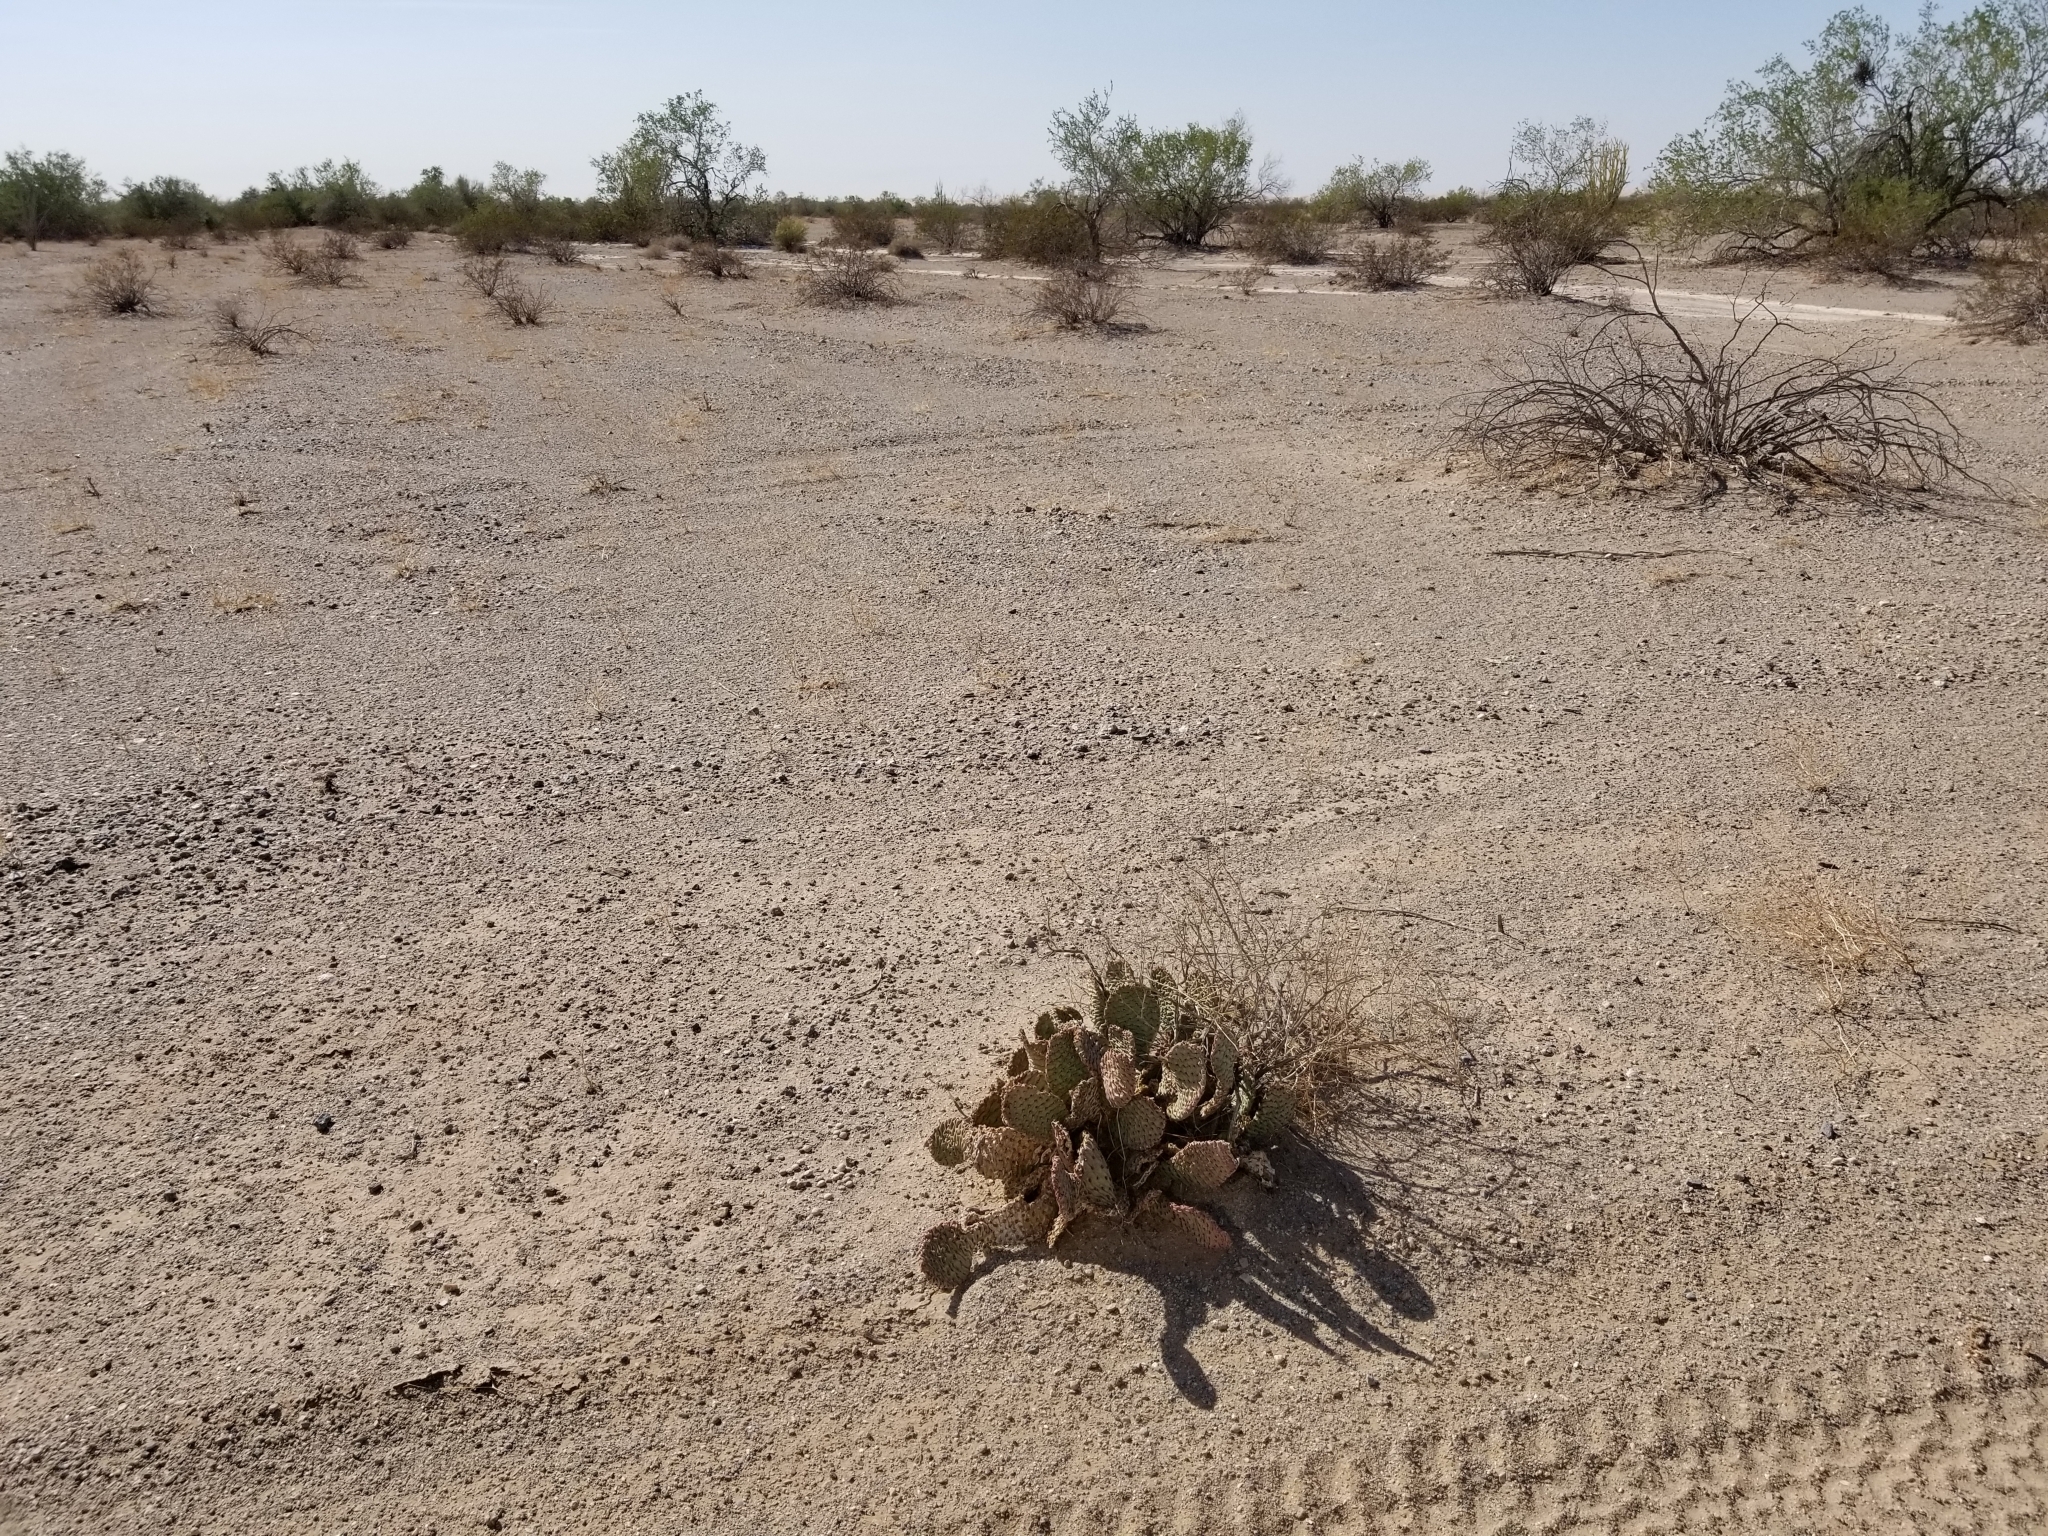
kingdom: Plantae
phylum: Tracheophyta
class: Magnoliopsida
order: Caryophyllales
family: Cactaceae
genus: Opuntia
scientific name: Opuntia basilaris
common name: Beavertail prickly-pear
